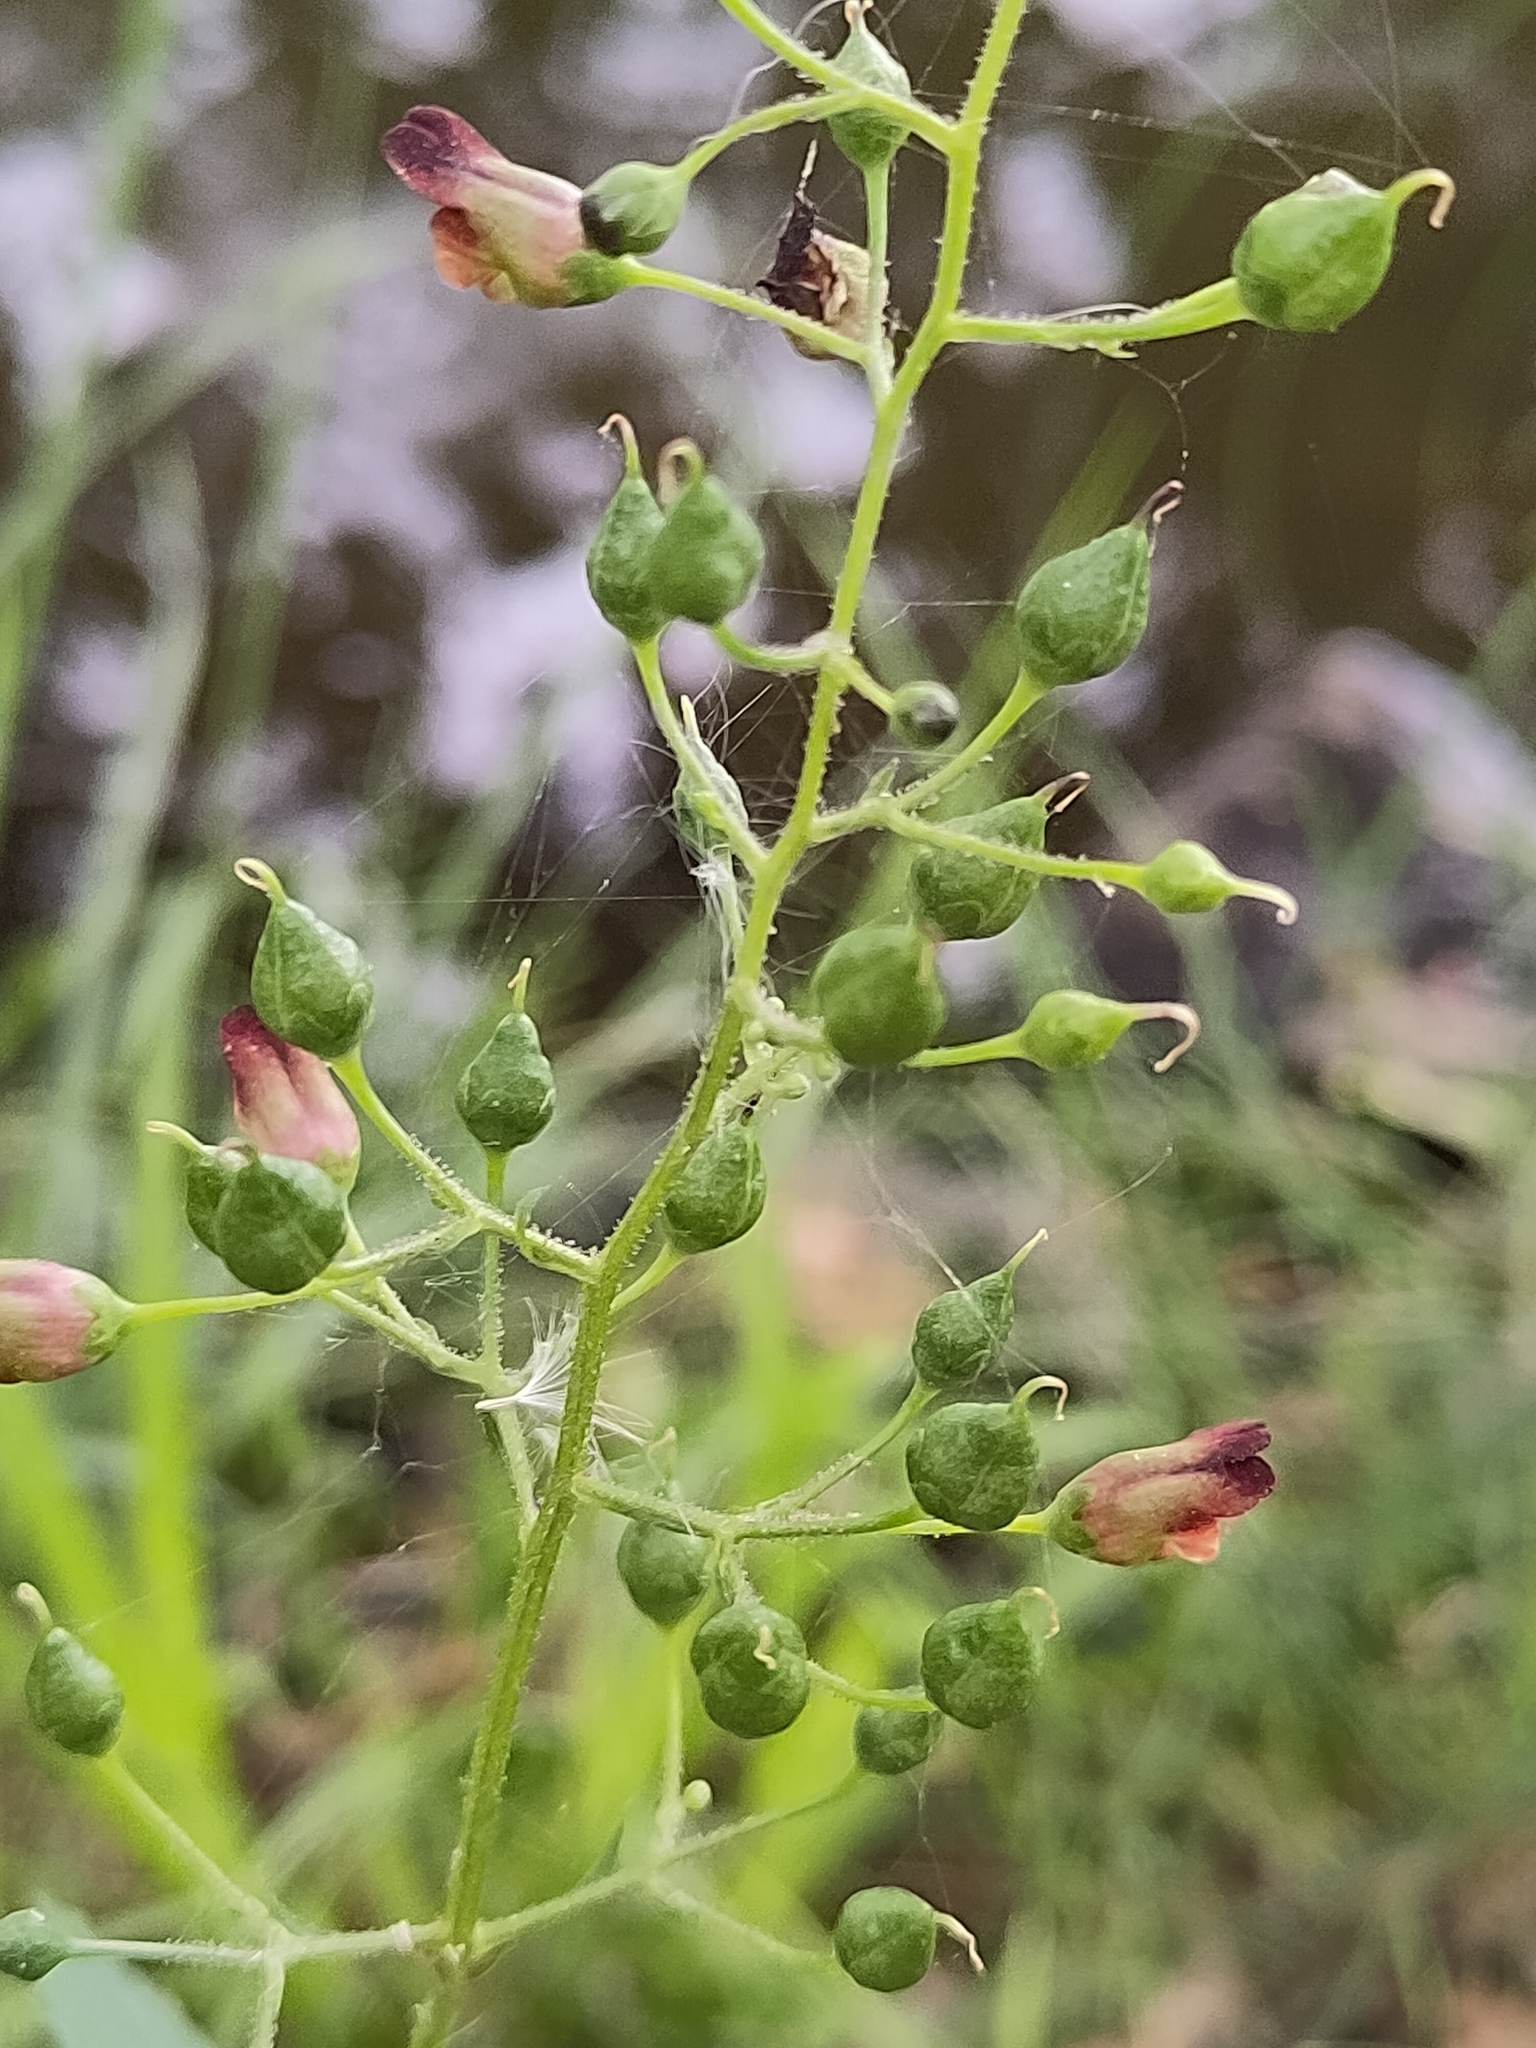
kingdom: Plantae
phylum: Tracheophyta
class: Magnoliopsida
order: Lamiales
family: Scrophulariaceae
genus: Scrophularia
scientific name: Scrophularia nodosa
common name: Common figwort
